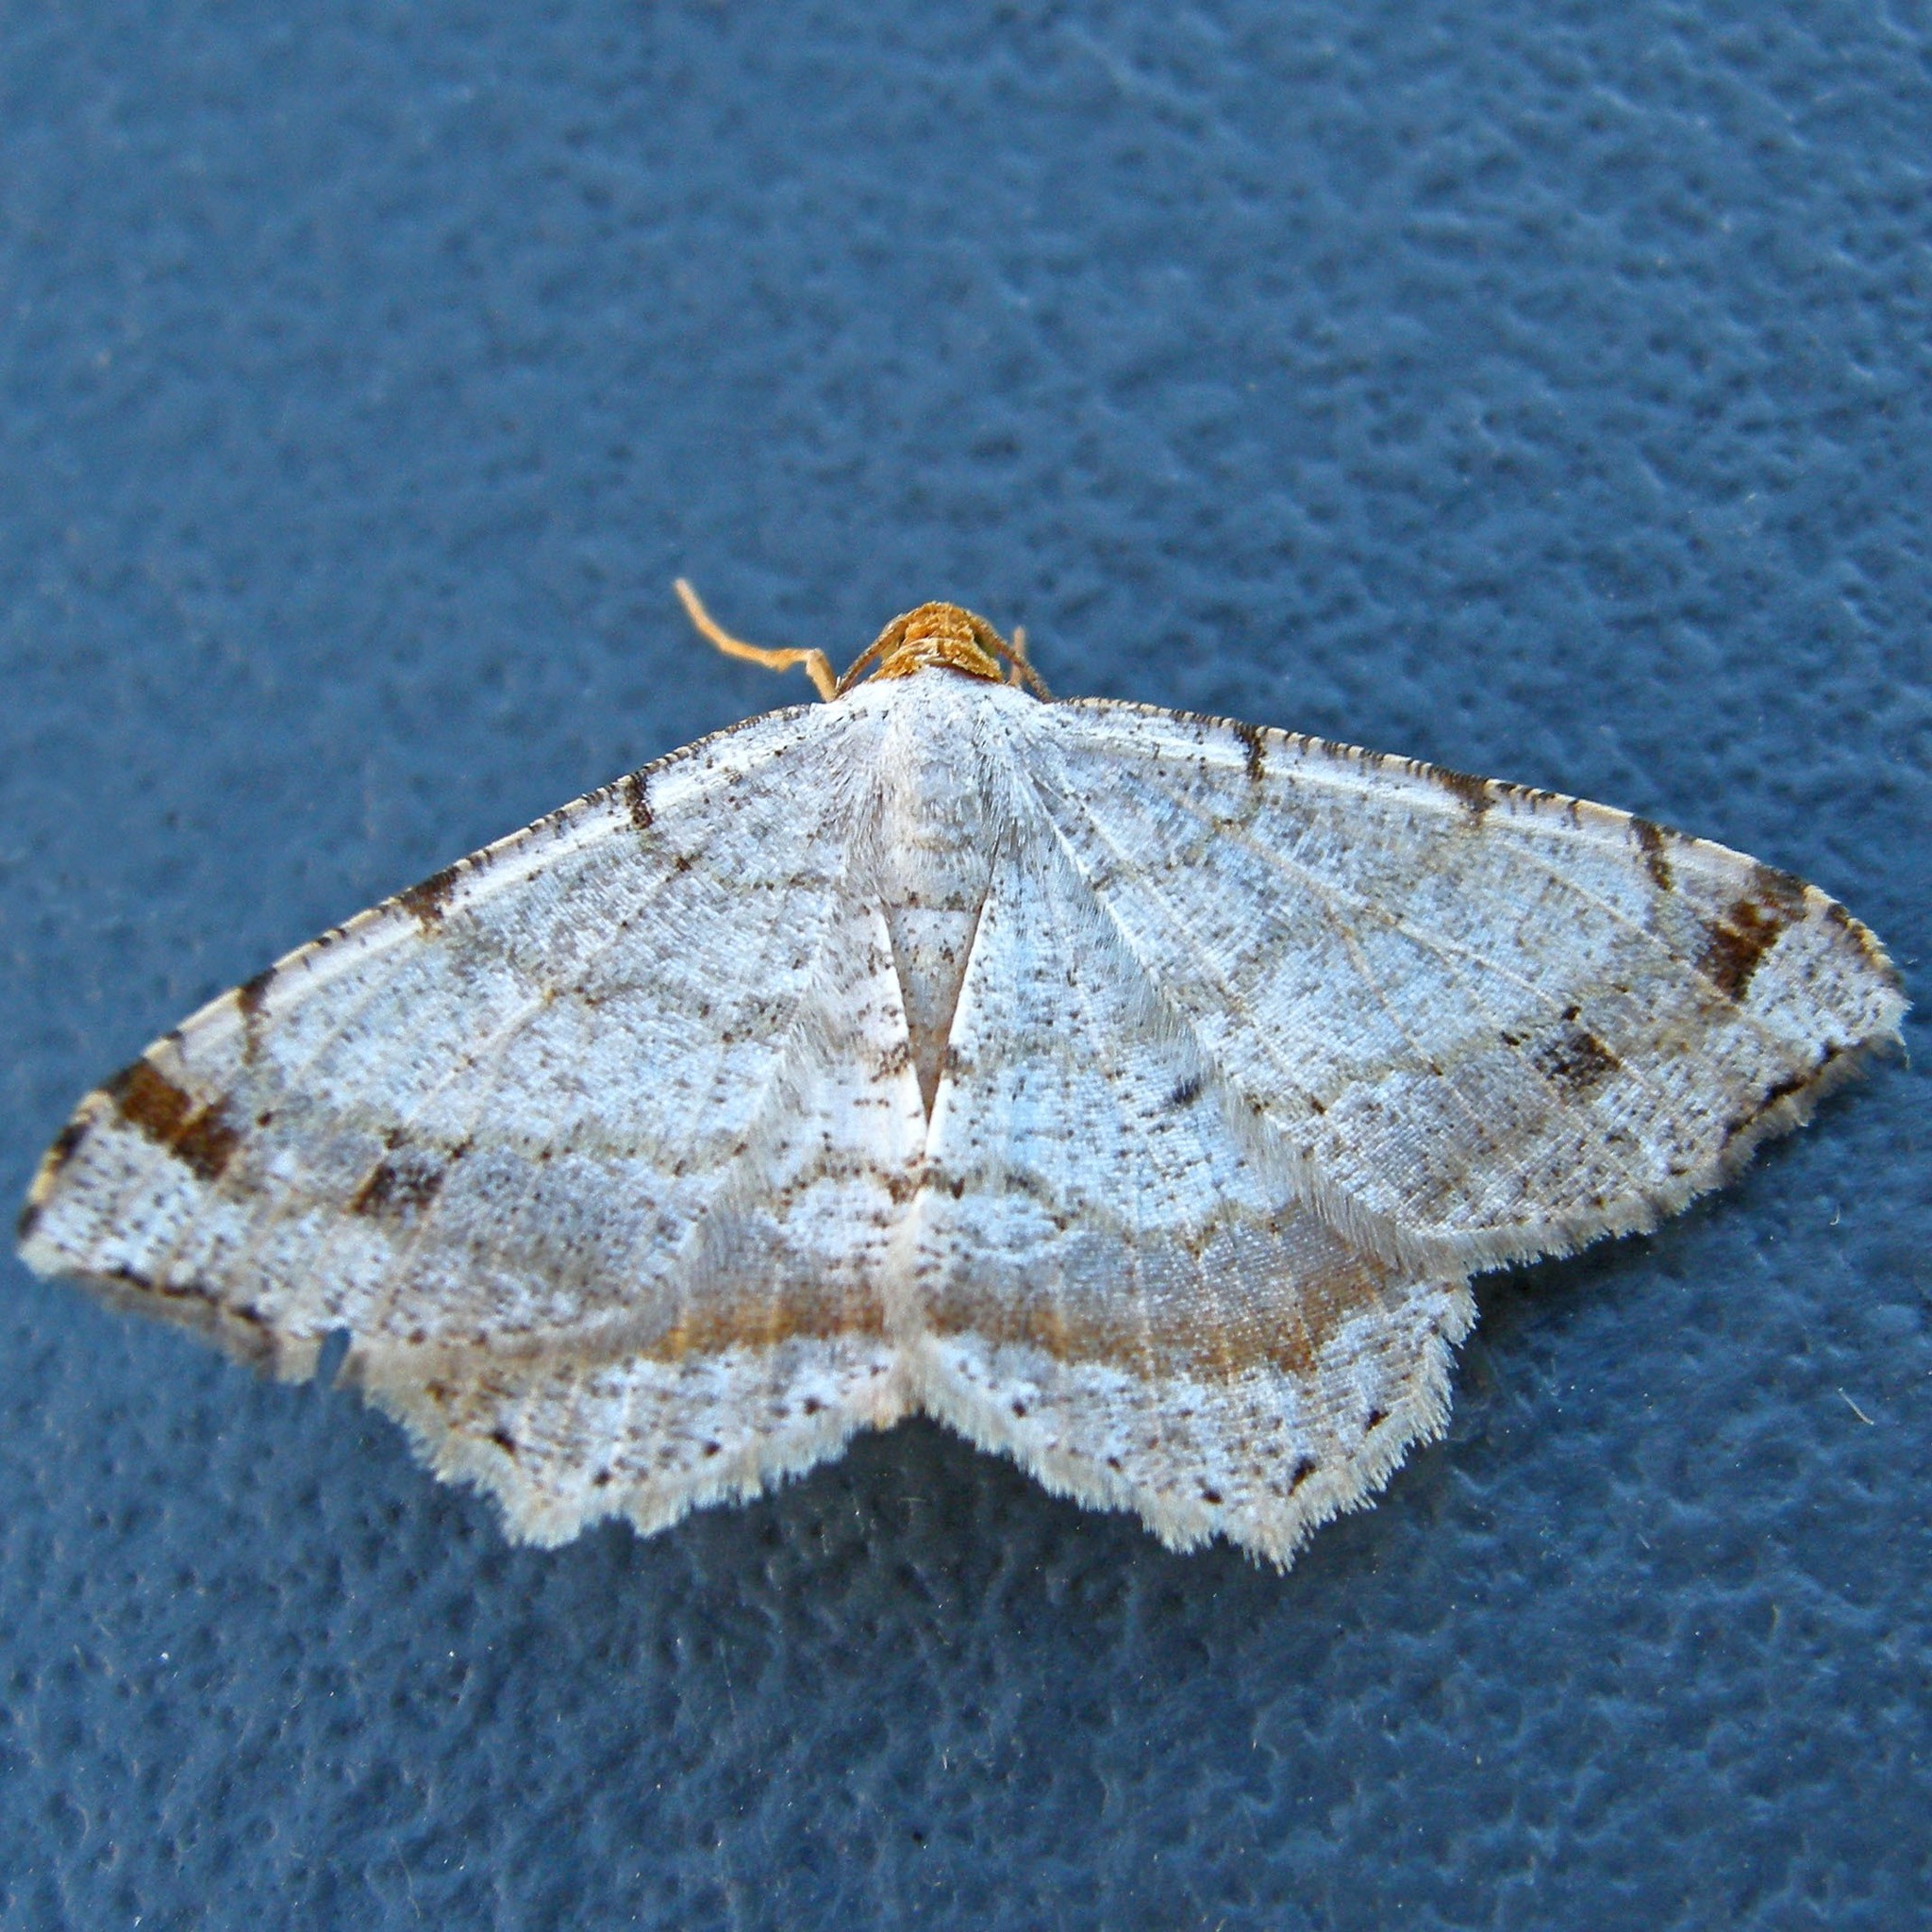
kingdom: Animalia
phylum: Arthropoda
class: Insecta
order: Lepidoptera
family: Geometridae
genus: Macaria
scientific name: Macaria bisignata
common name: Red-headed inchworm
